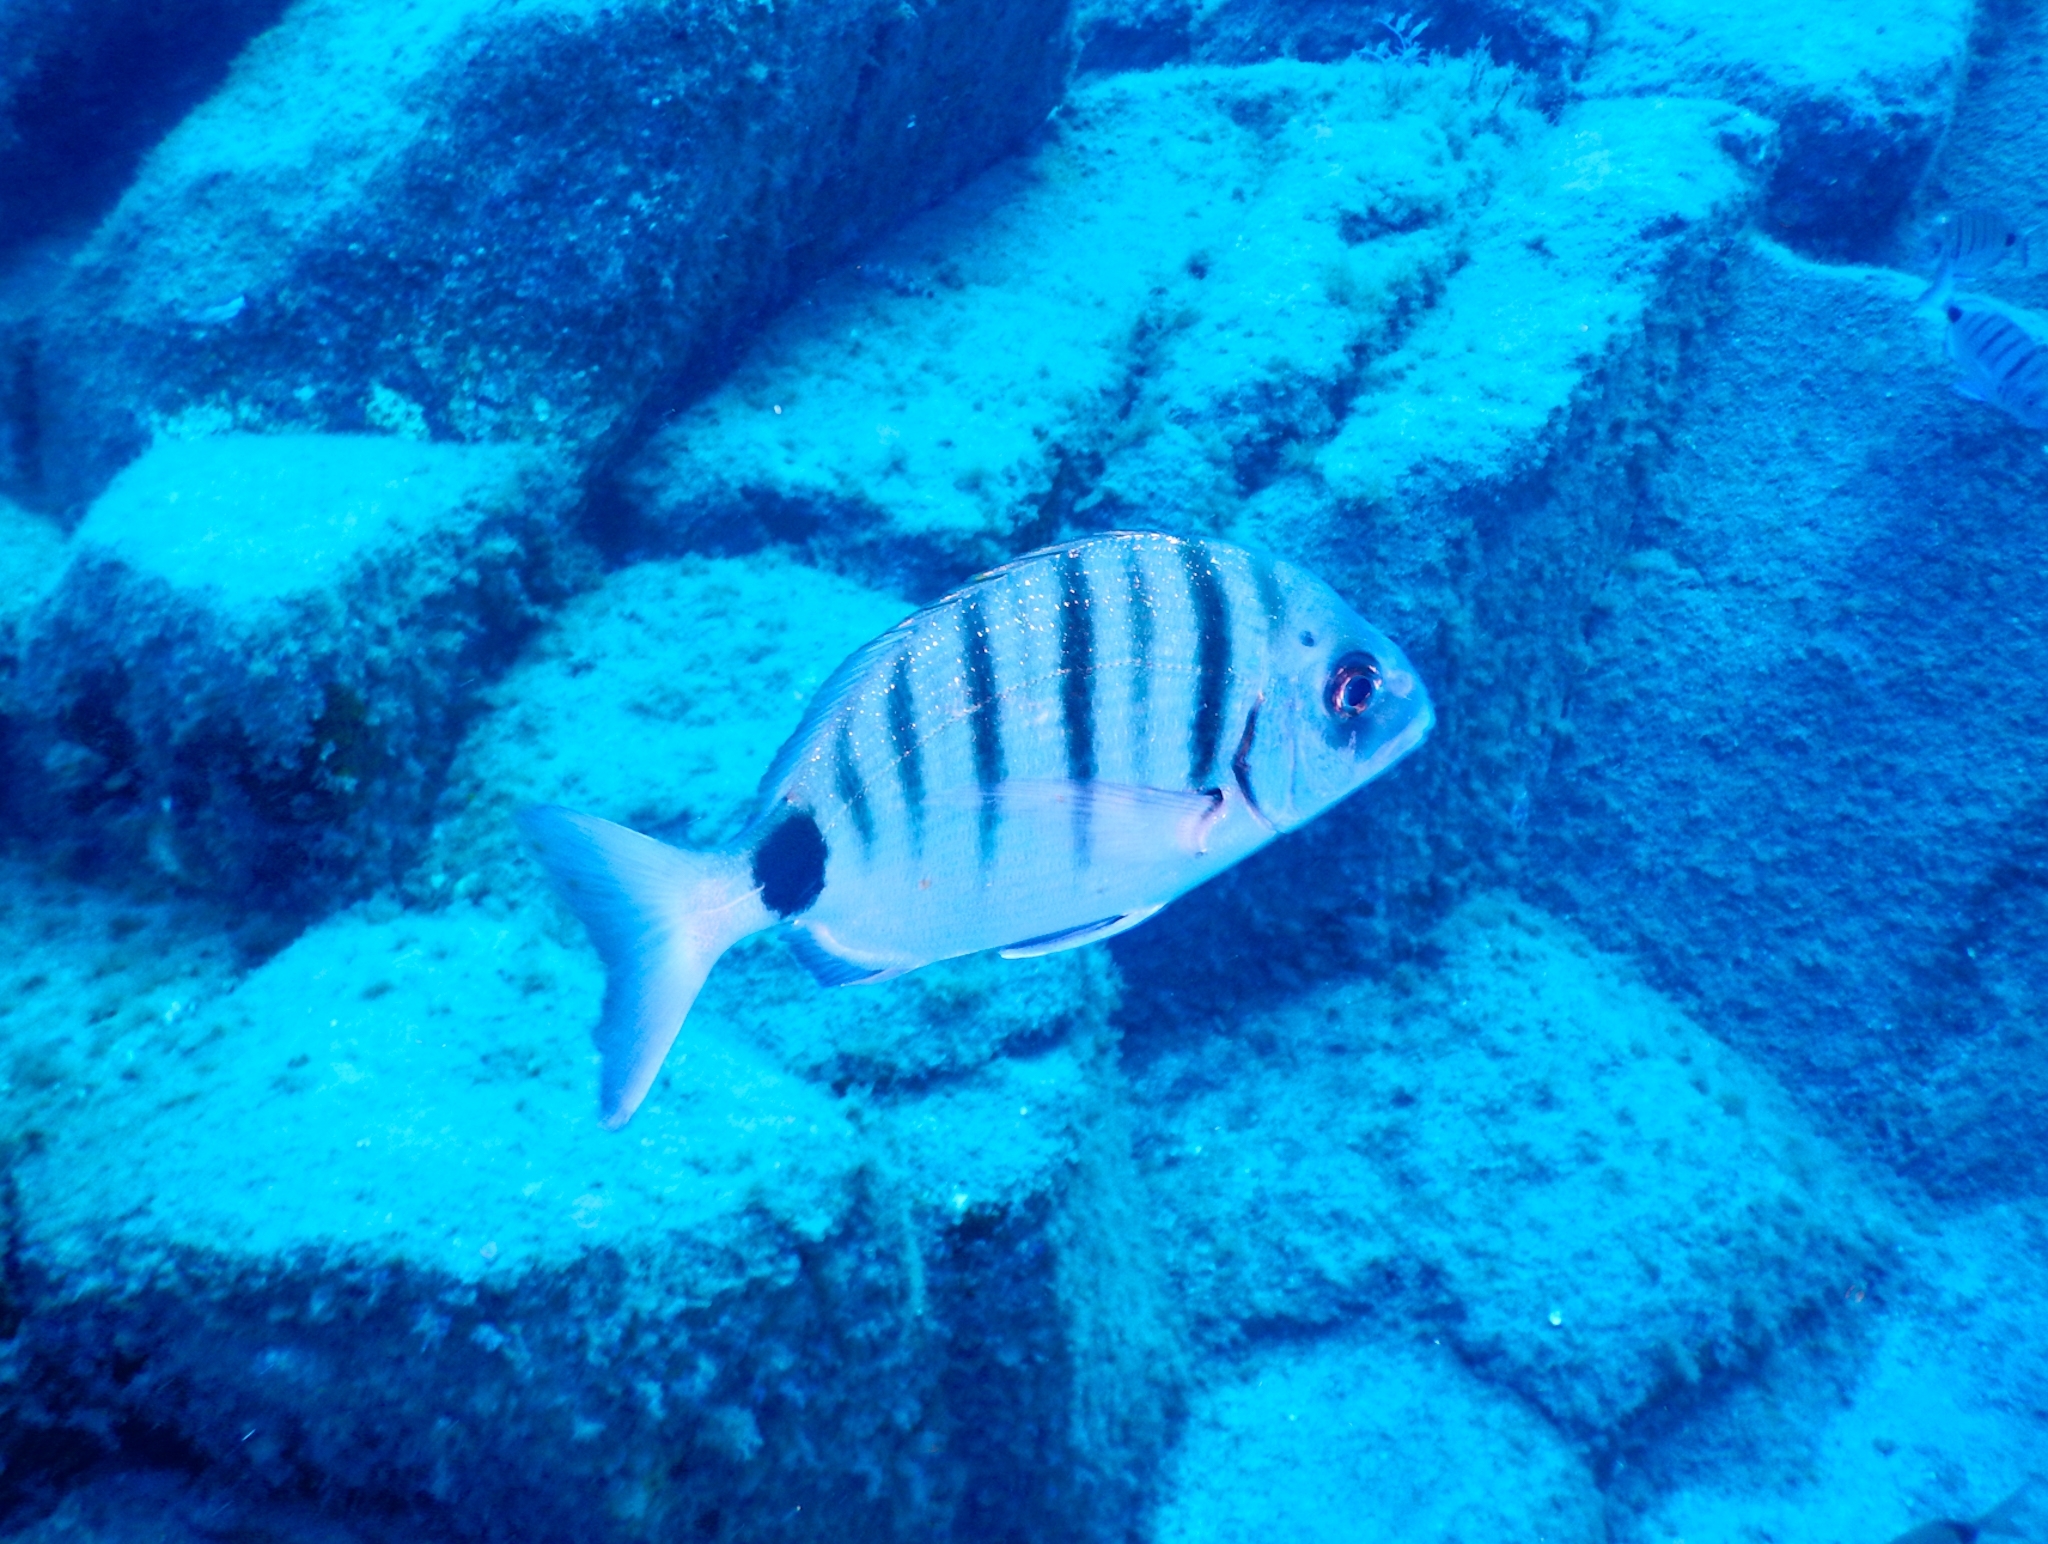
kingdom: Animalia
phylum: Chordata
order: Perciformes
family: Sparidae
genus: Diplodus
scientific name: Diplodus cadenati
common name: Moroccan white seabream
